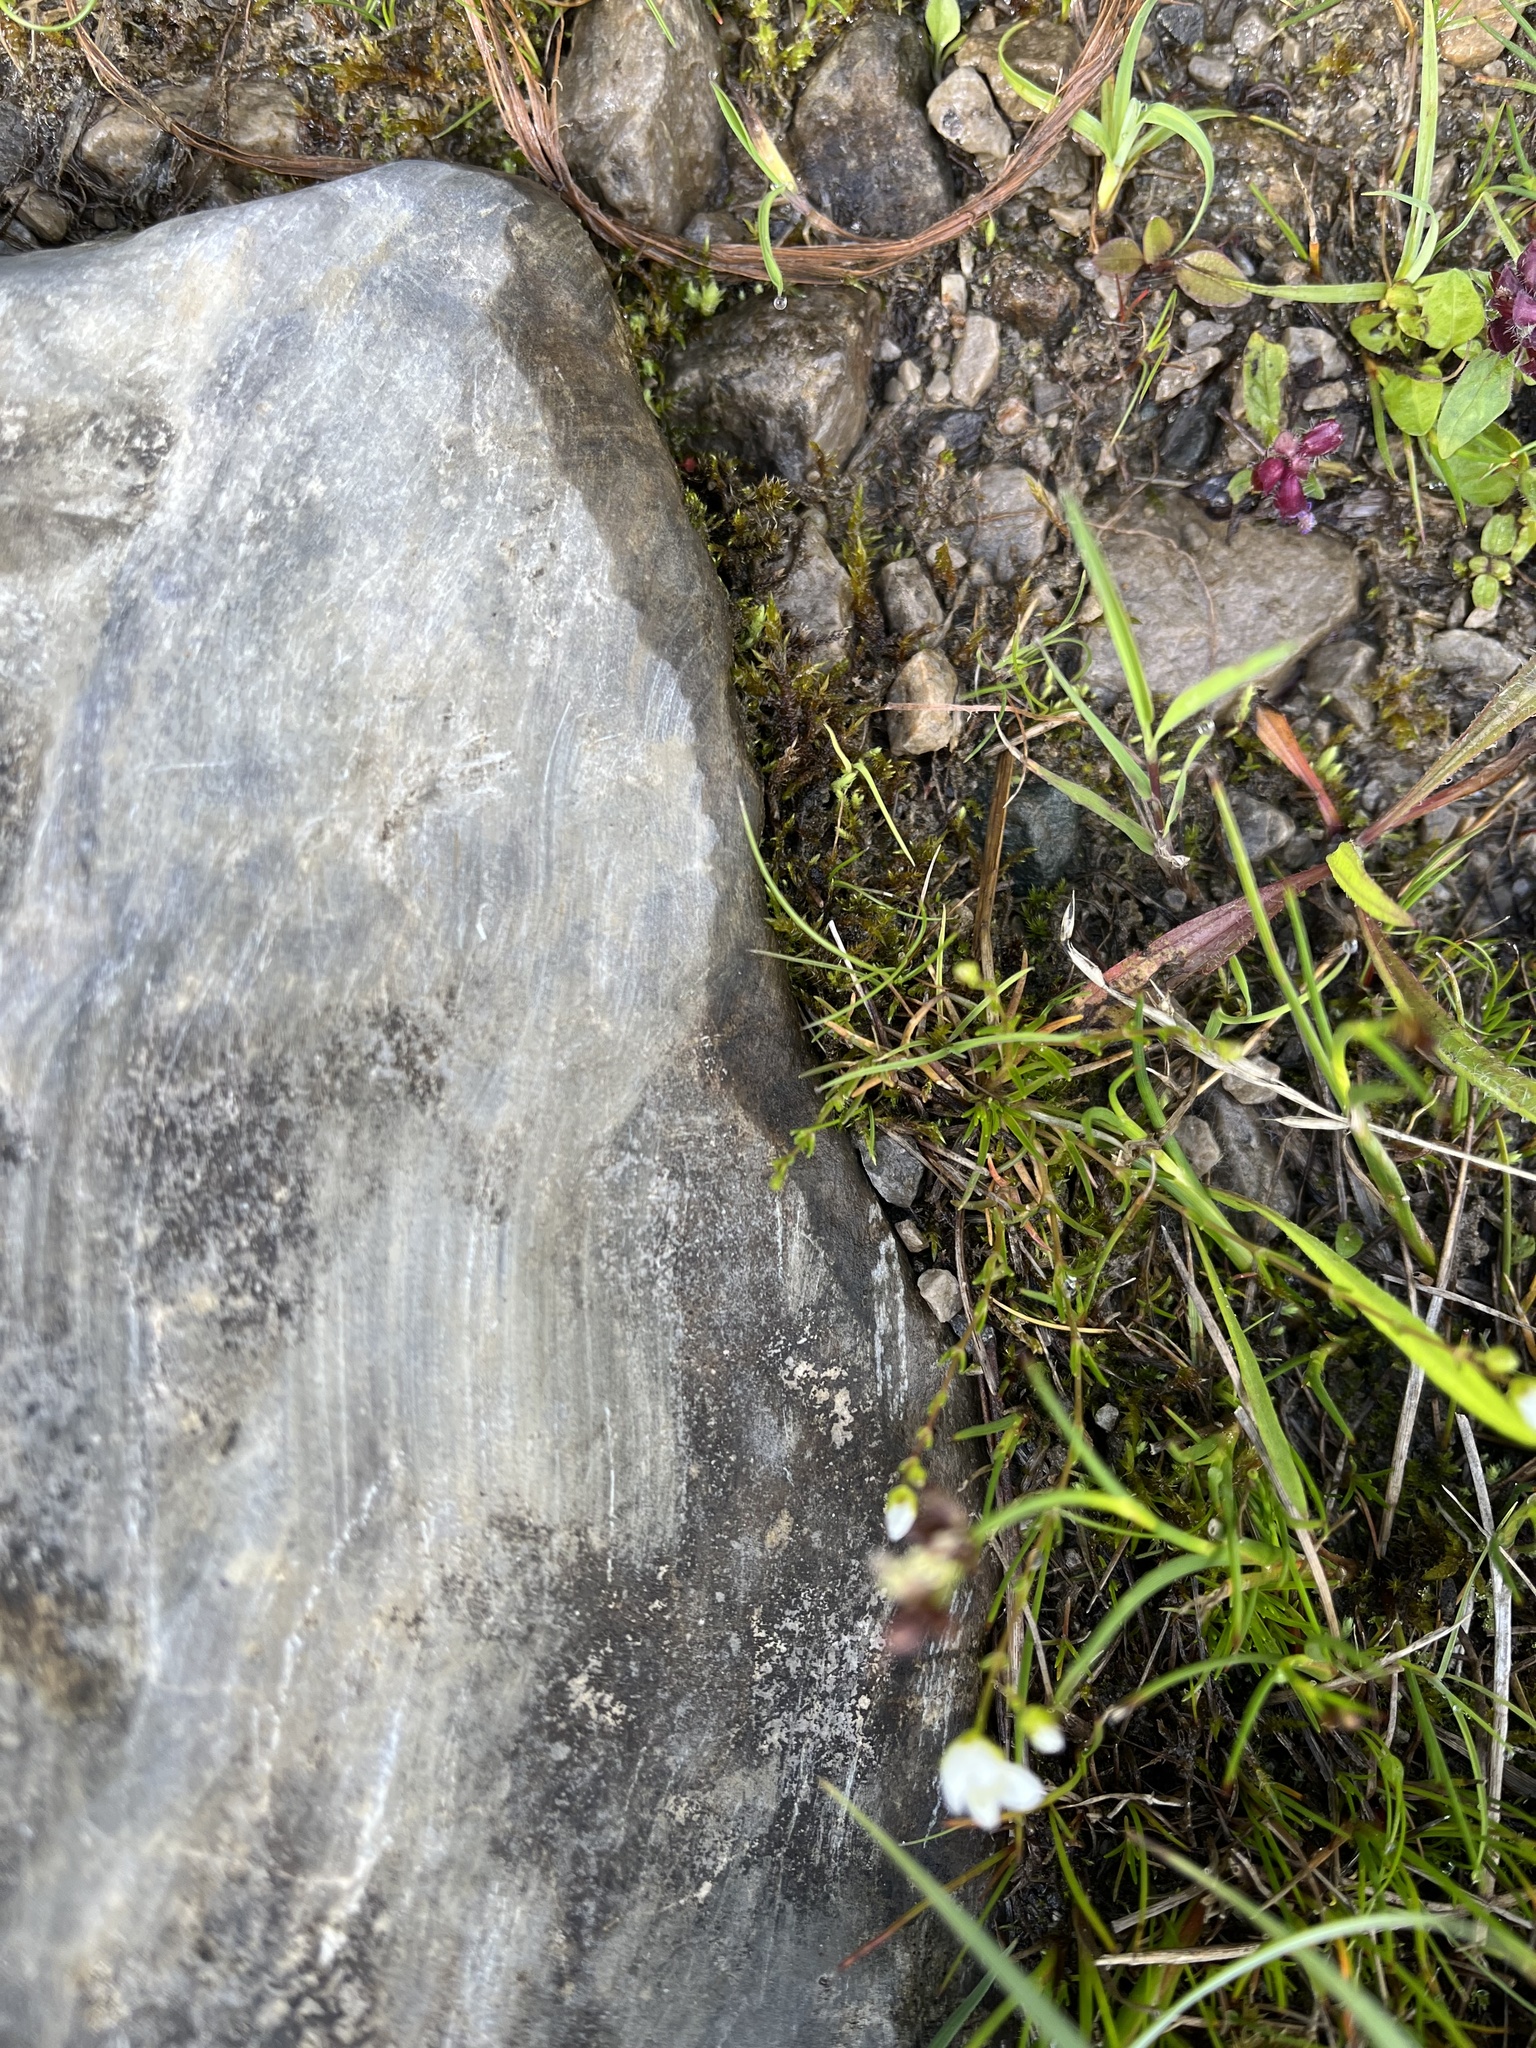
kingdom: Plantae
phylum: Tracheophyta
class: Magnoliopsida
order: Caryophyllales
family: Caryophyllaceae
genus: Sagina
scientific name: Sagina nodosa
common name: Knotted pearlwort
